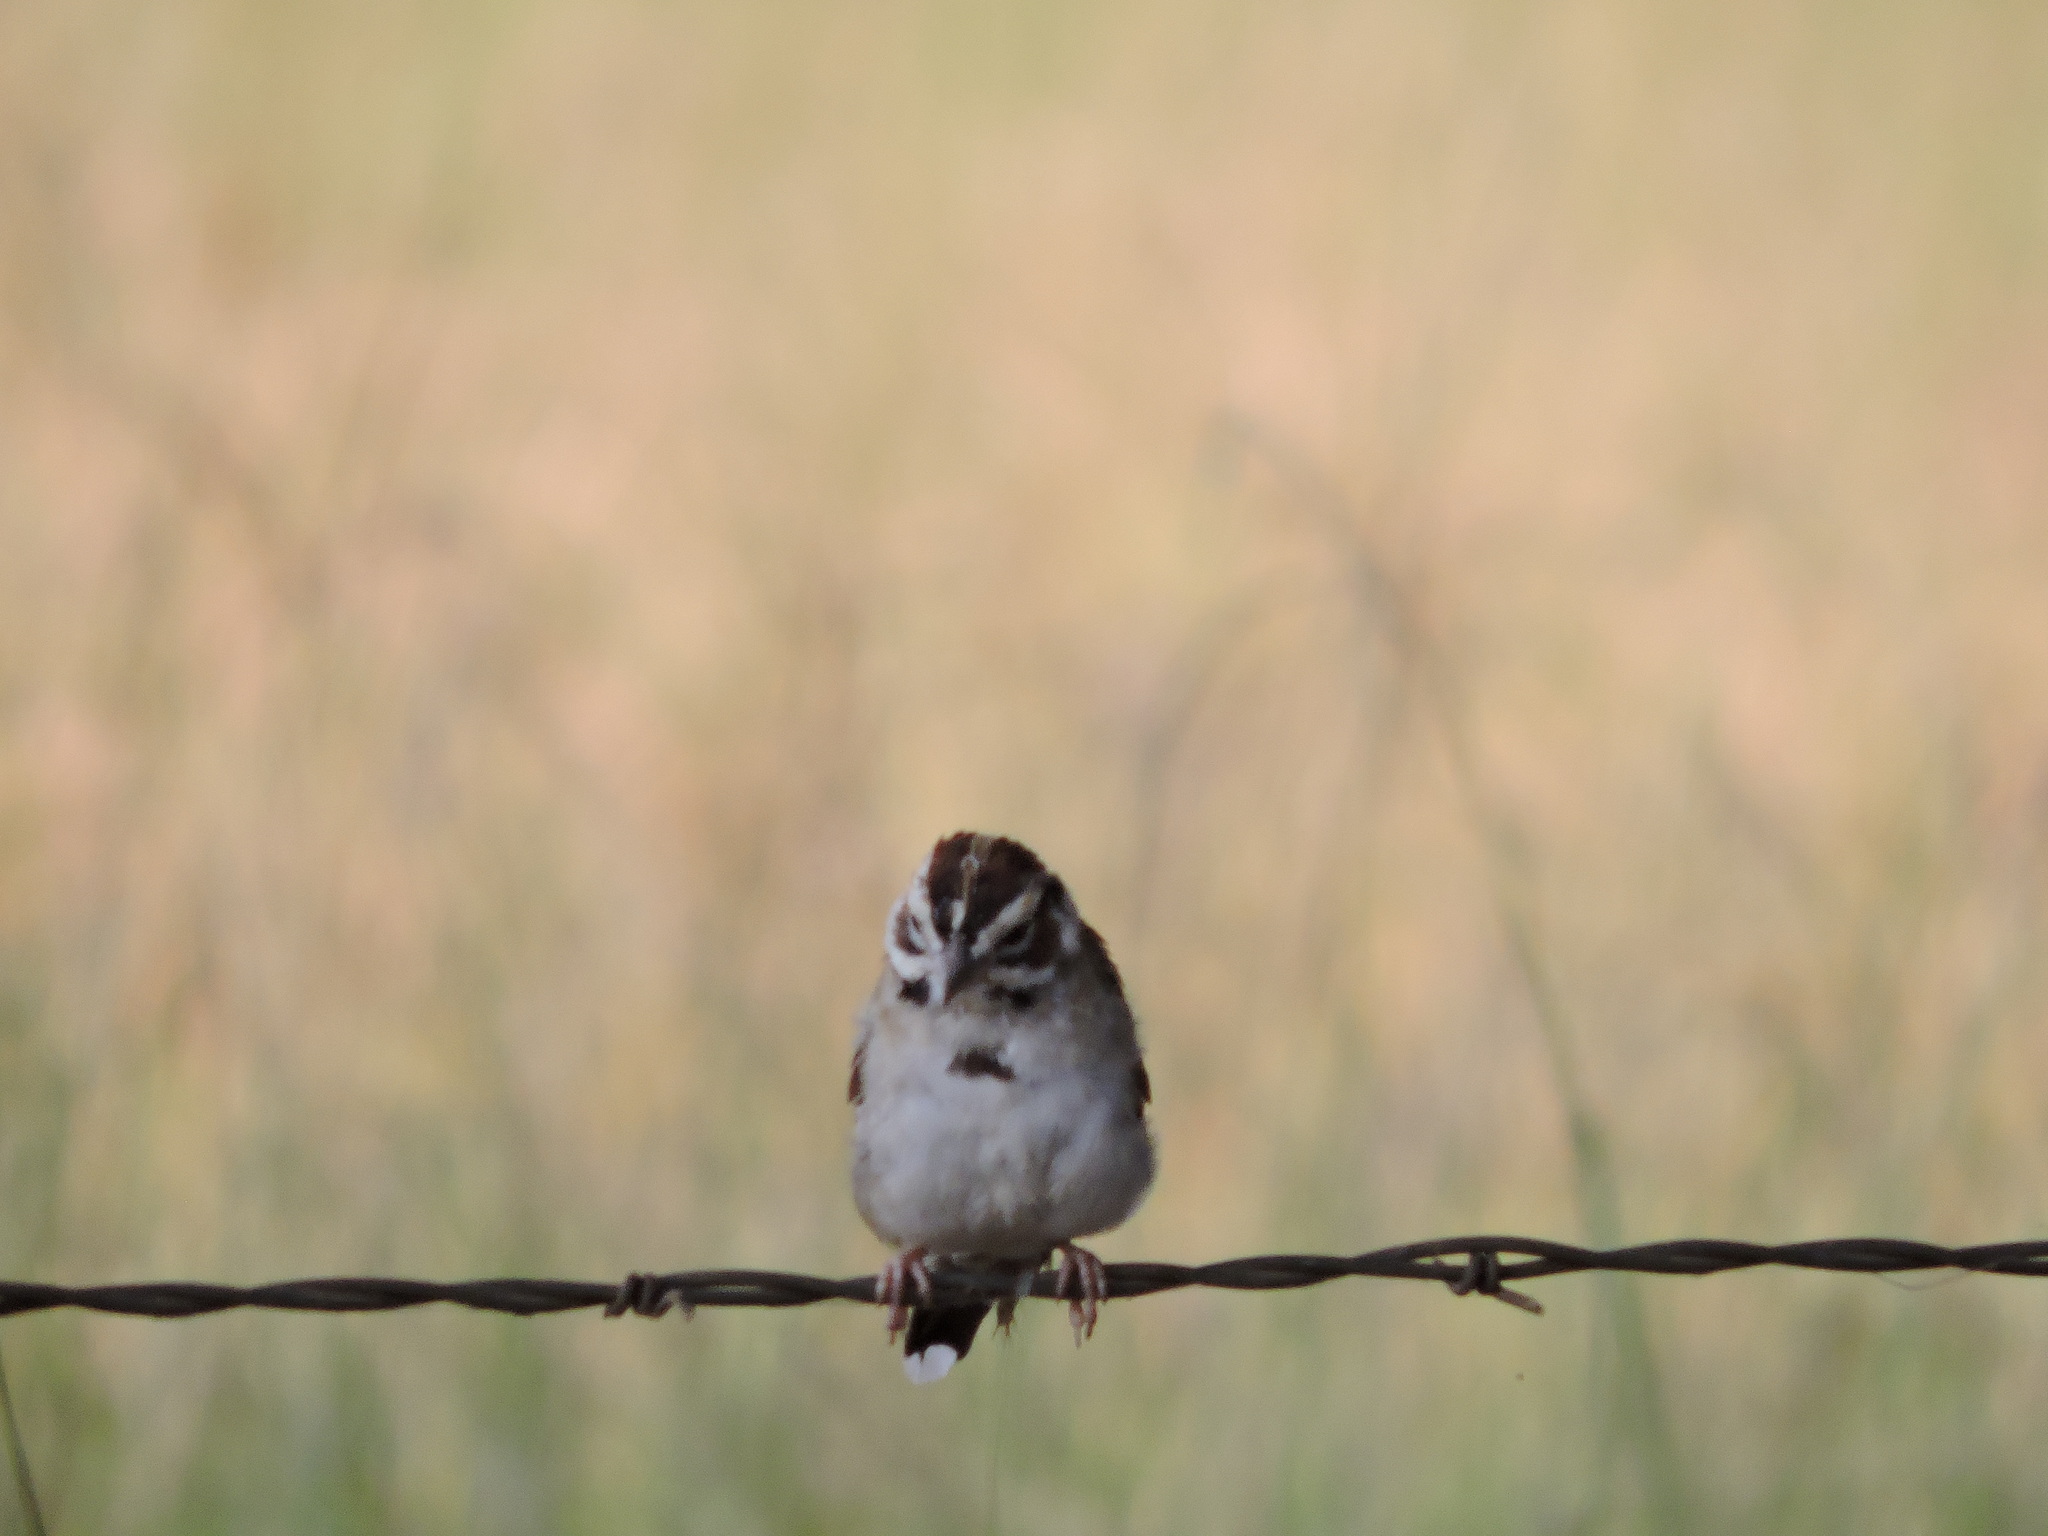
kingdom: Animalia
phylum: Chordata
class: Aves
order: Passeriformes
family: Passerellidae
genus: Chondestes
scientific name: Chondestes grammacus
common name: Lark sparrow
